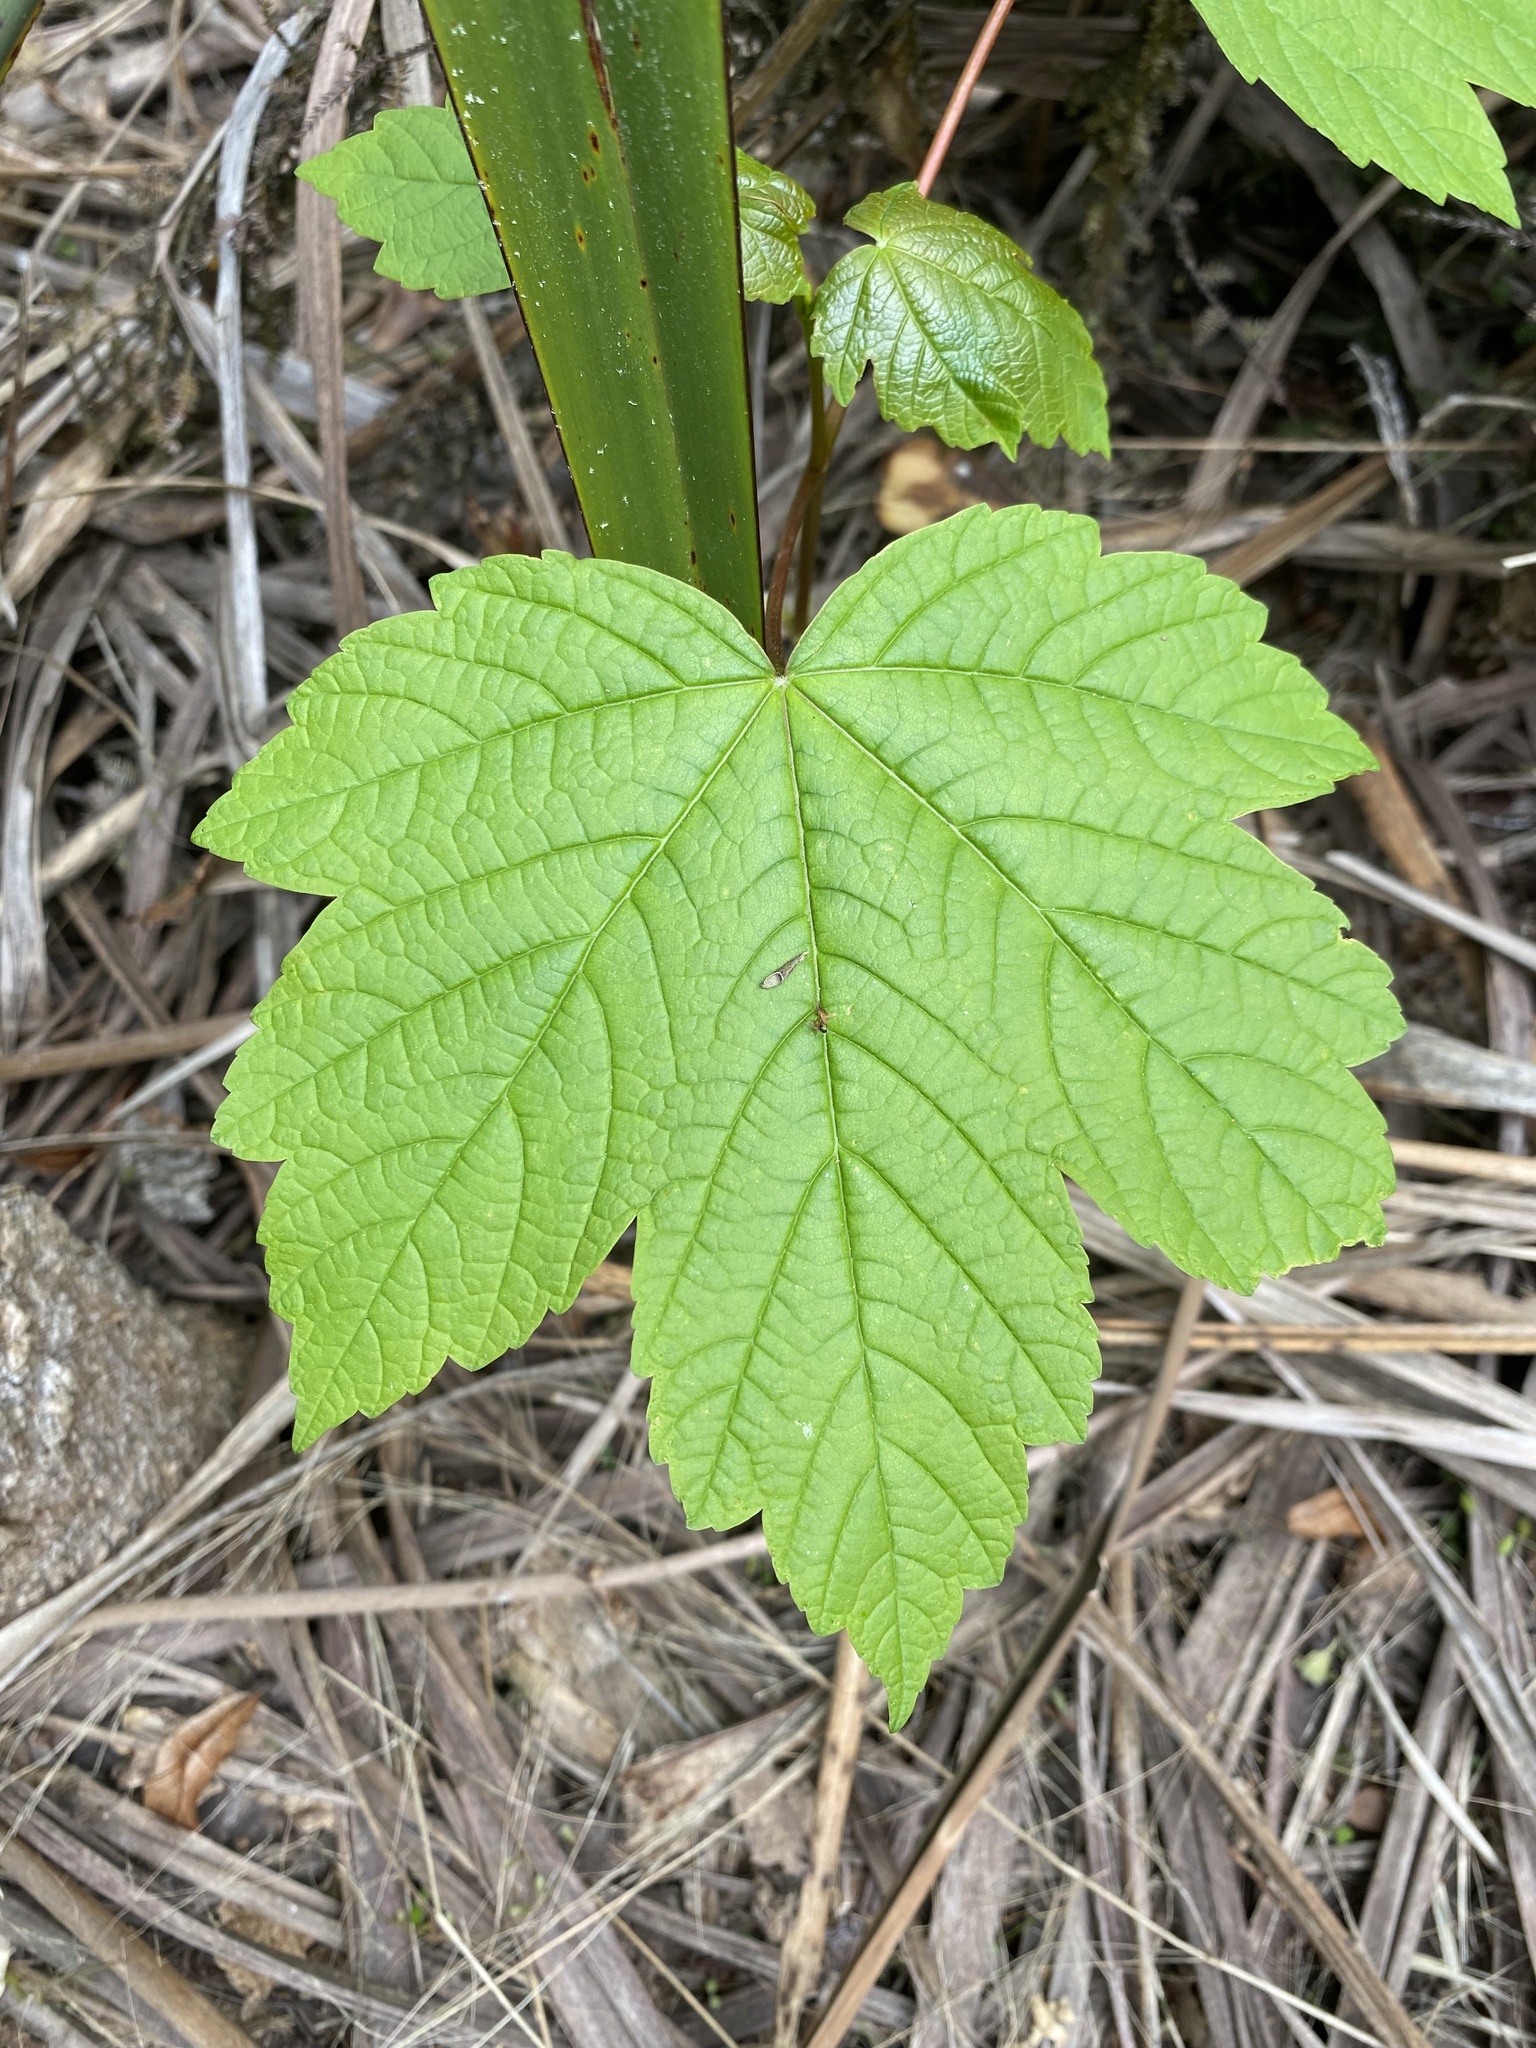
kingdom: Plantae
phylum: Tracheophyta
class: Magnoliopsida
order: Sapindales
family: Sapindaceae
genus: Acer
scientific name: Acer pseudoplatanus
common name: Sycamore
